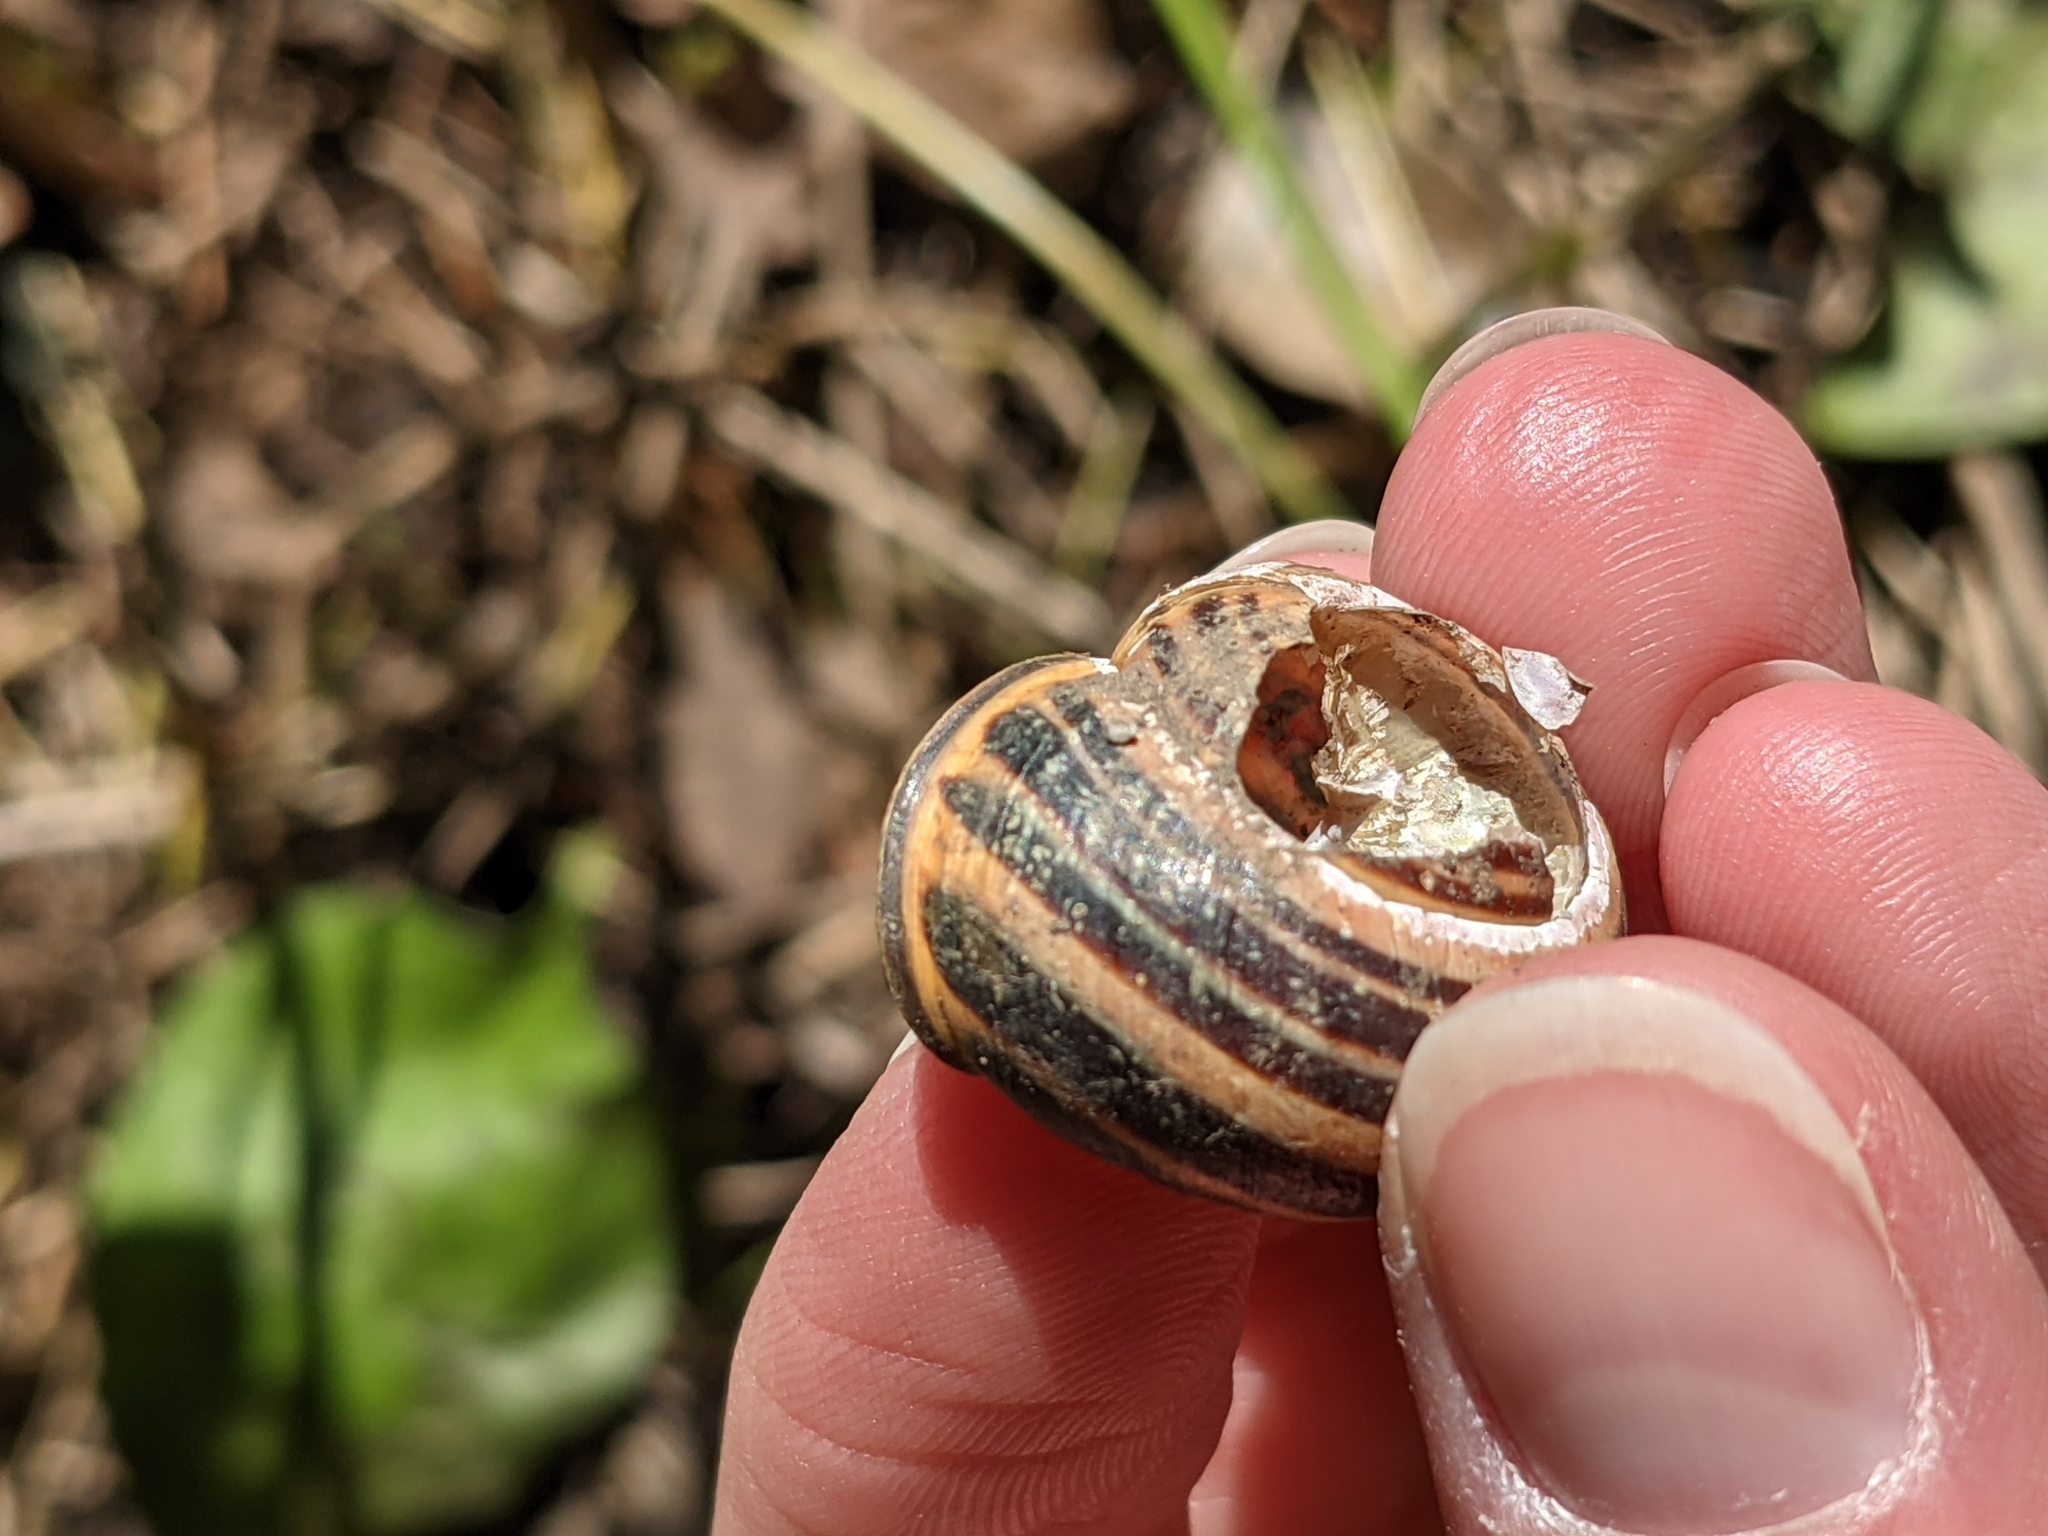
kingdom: Animalia
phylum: Mollusca
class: Gastropoda
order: Stylommatophora
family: Helicidae
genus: Cepaea
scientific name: Cepaea nemoralis
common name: Grovesnail
